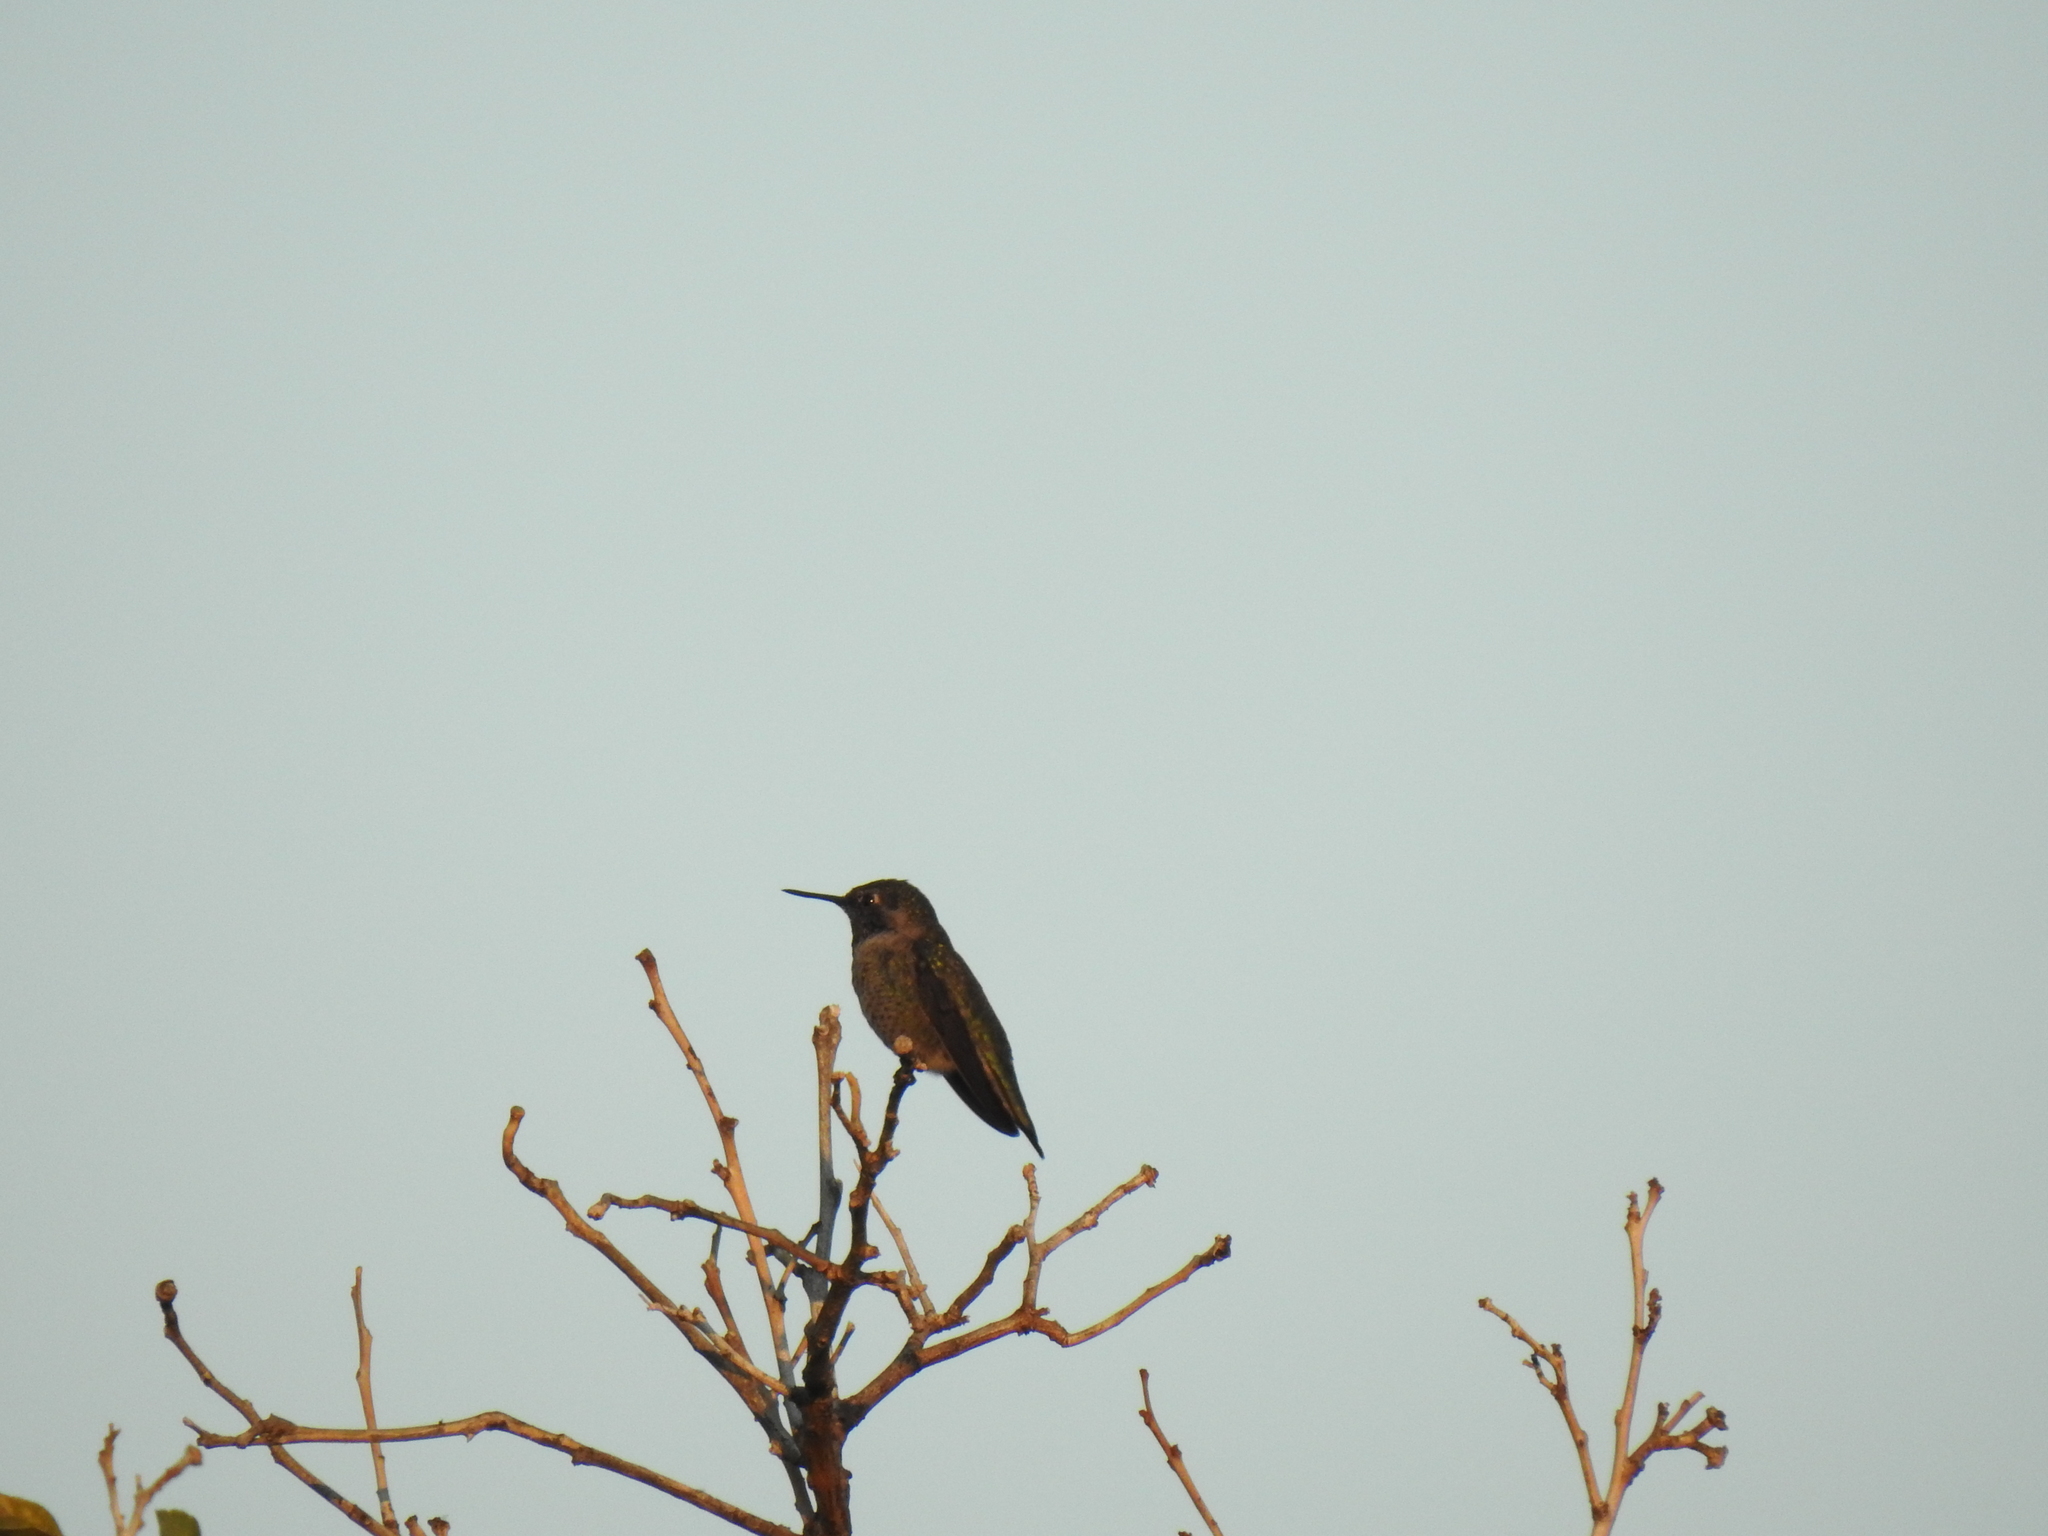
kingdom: Animalia
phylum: Chordata
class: Aves
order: Apodiformes
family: Trochilidae
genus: Calypte
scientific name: Calypte anna
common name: Anna's hummingbird
